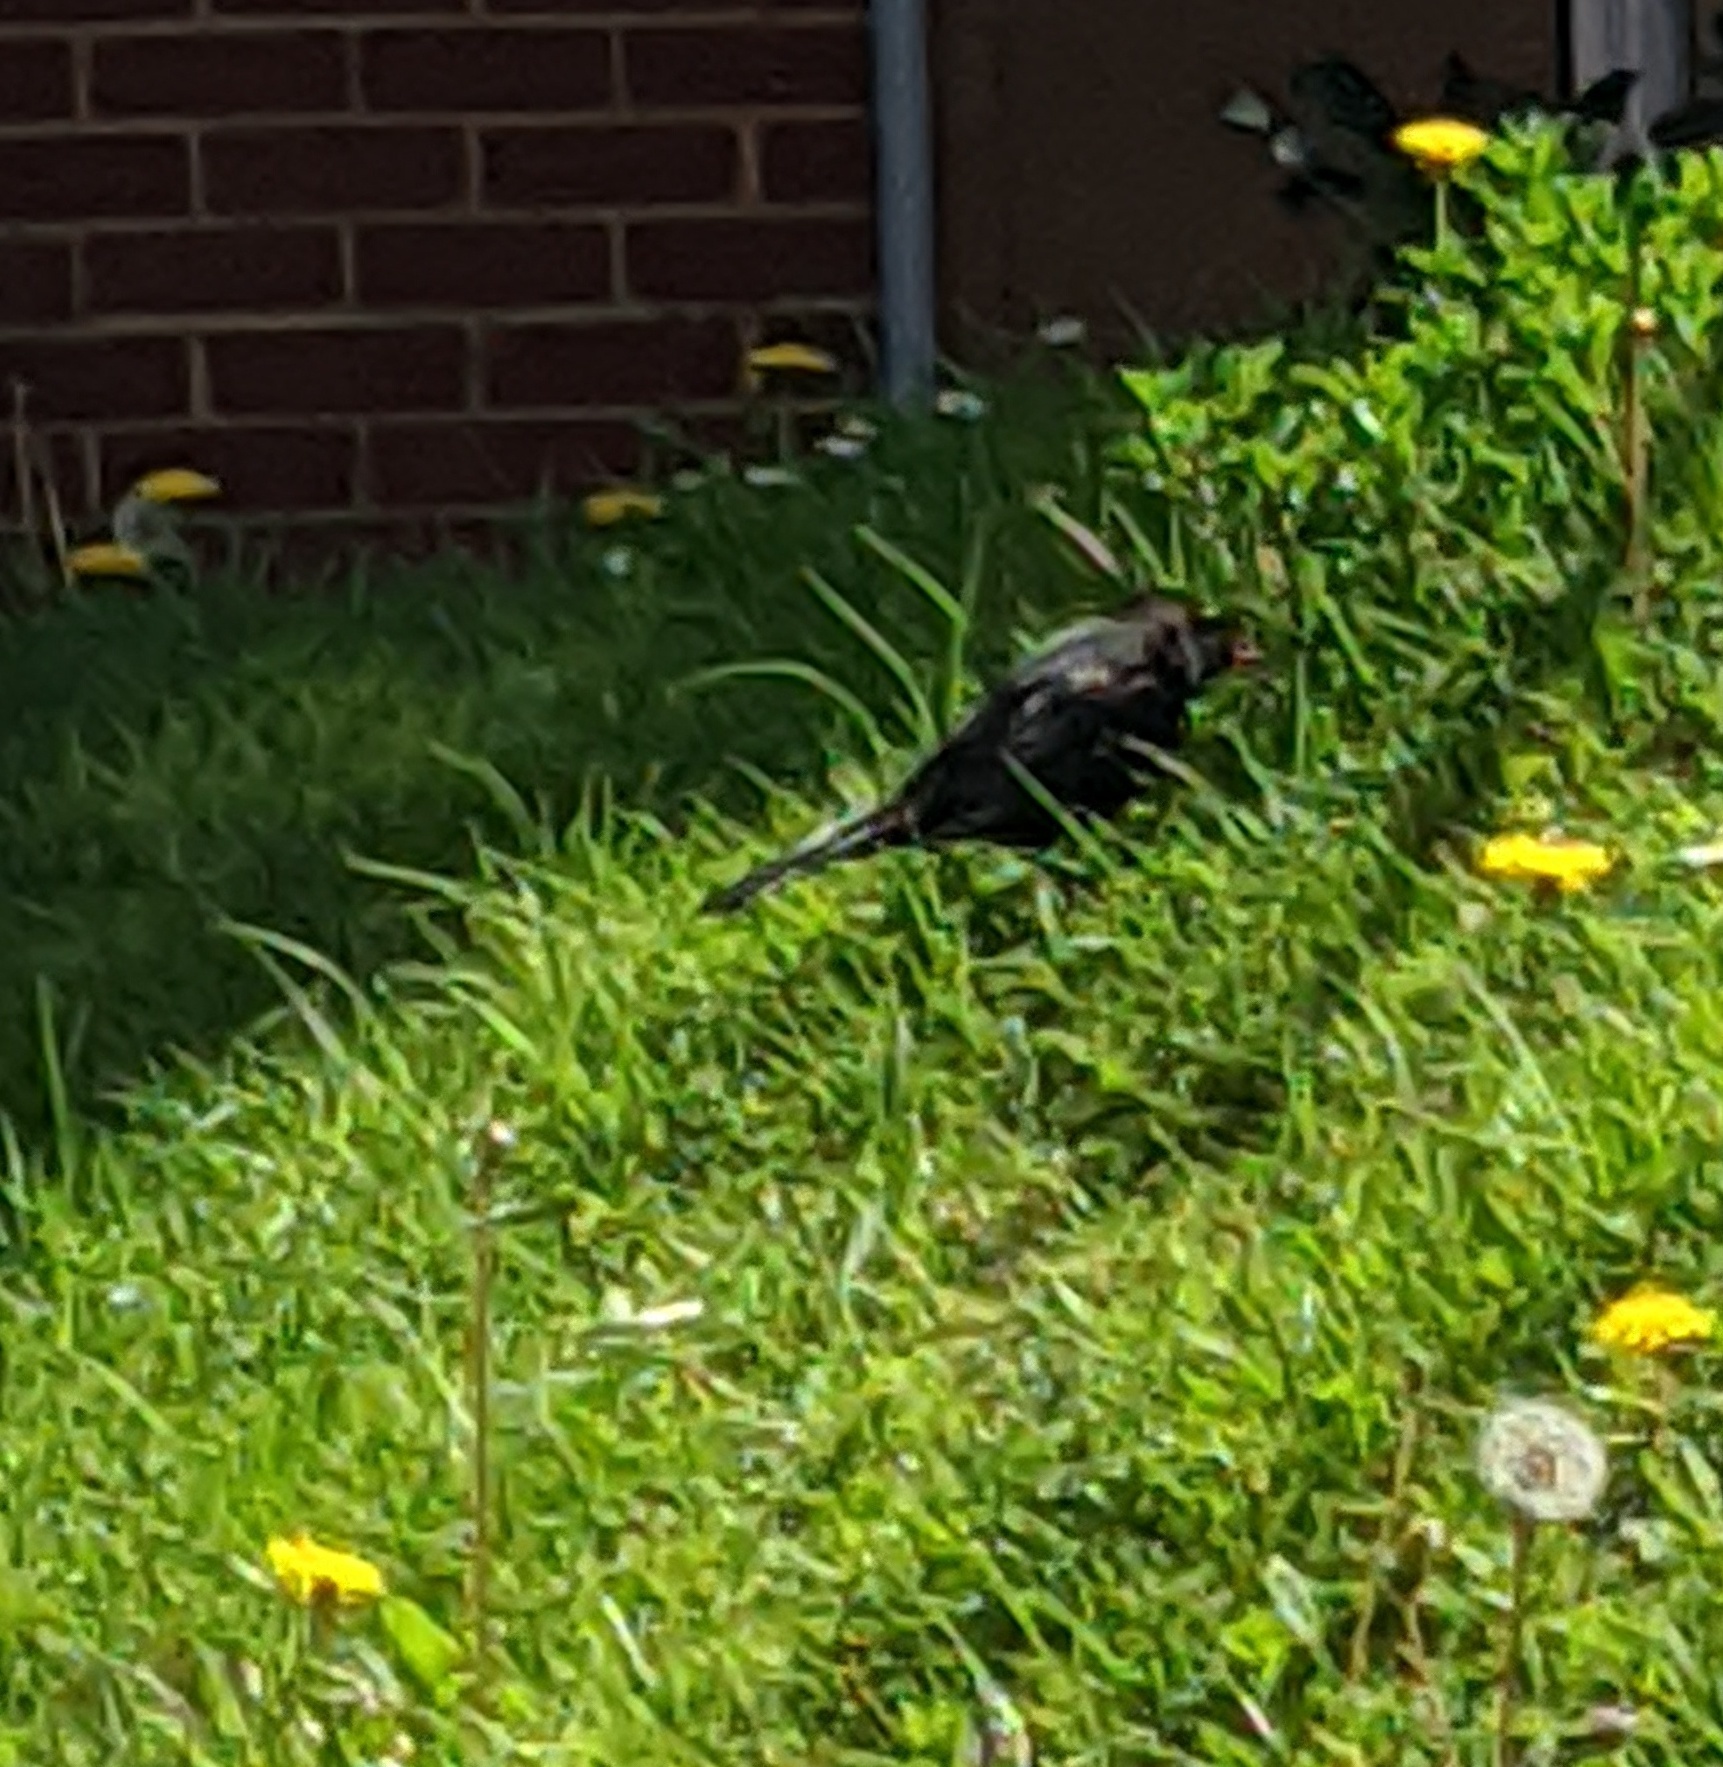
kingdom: Animalia
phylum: Chordata
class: Aves
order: Passeriformes
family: Turdidae
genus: Turdus
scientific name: Turdus merula
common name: Common blackbird
